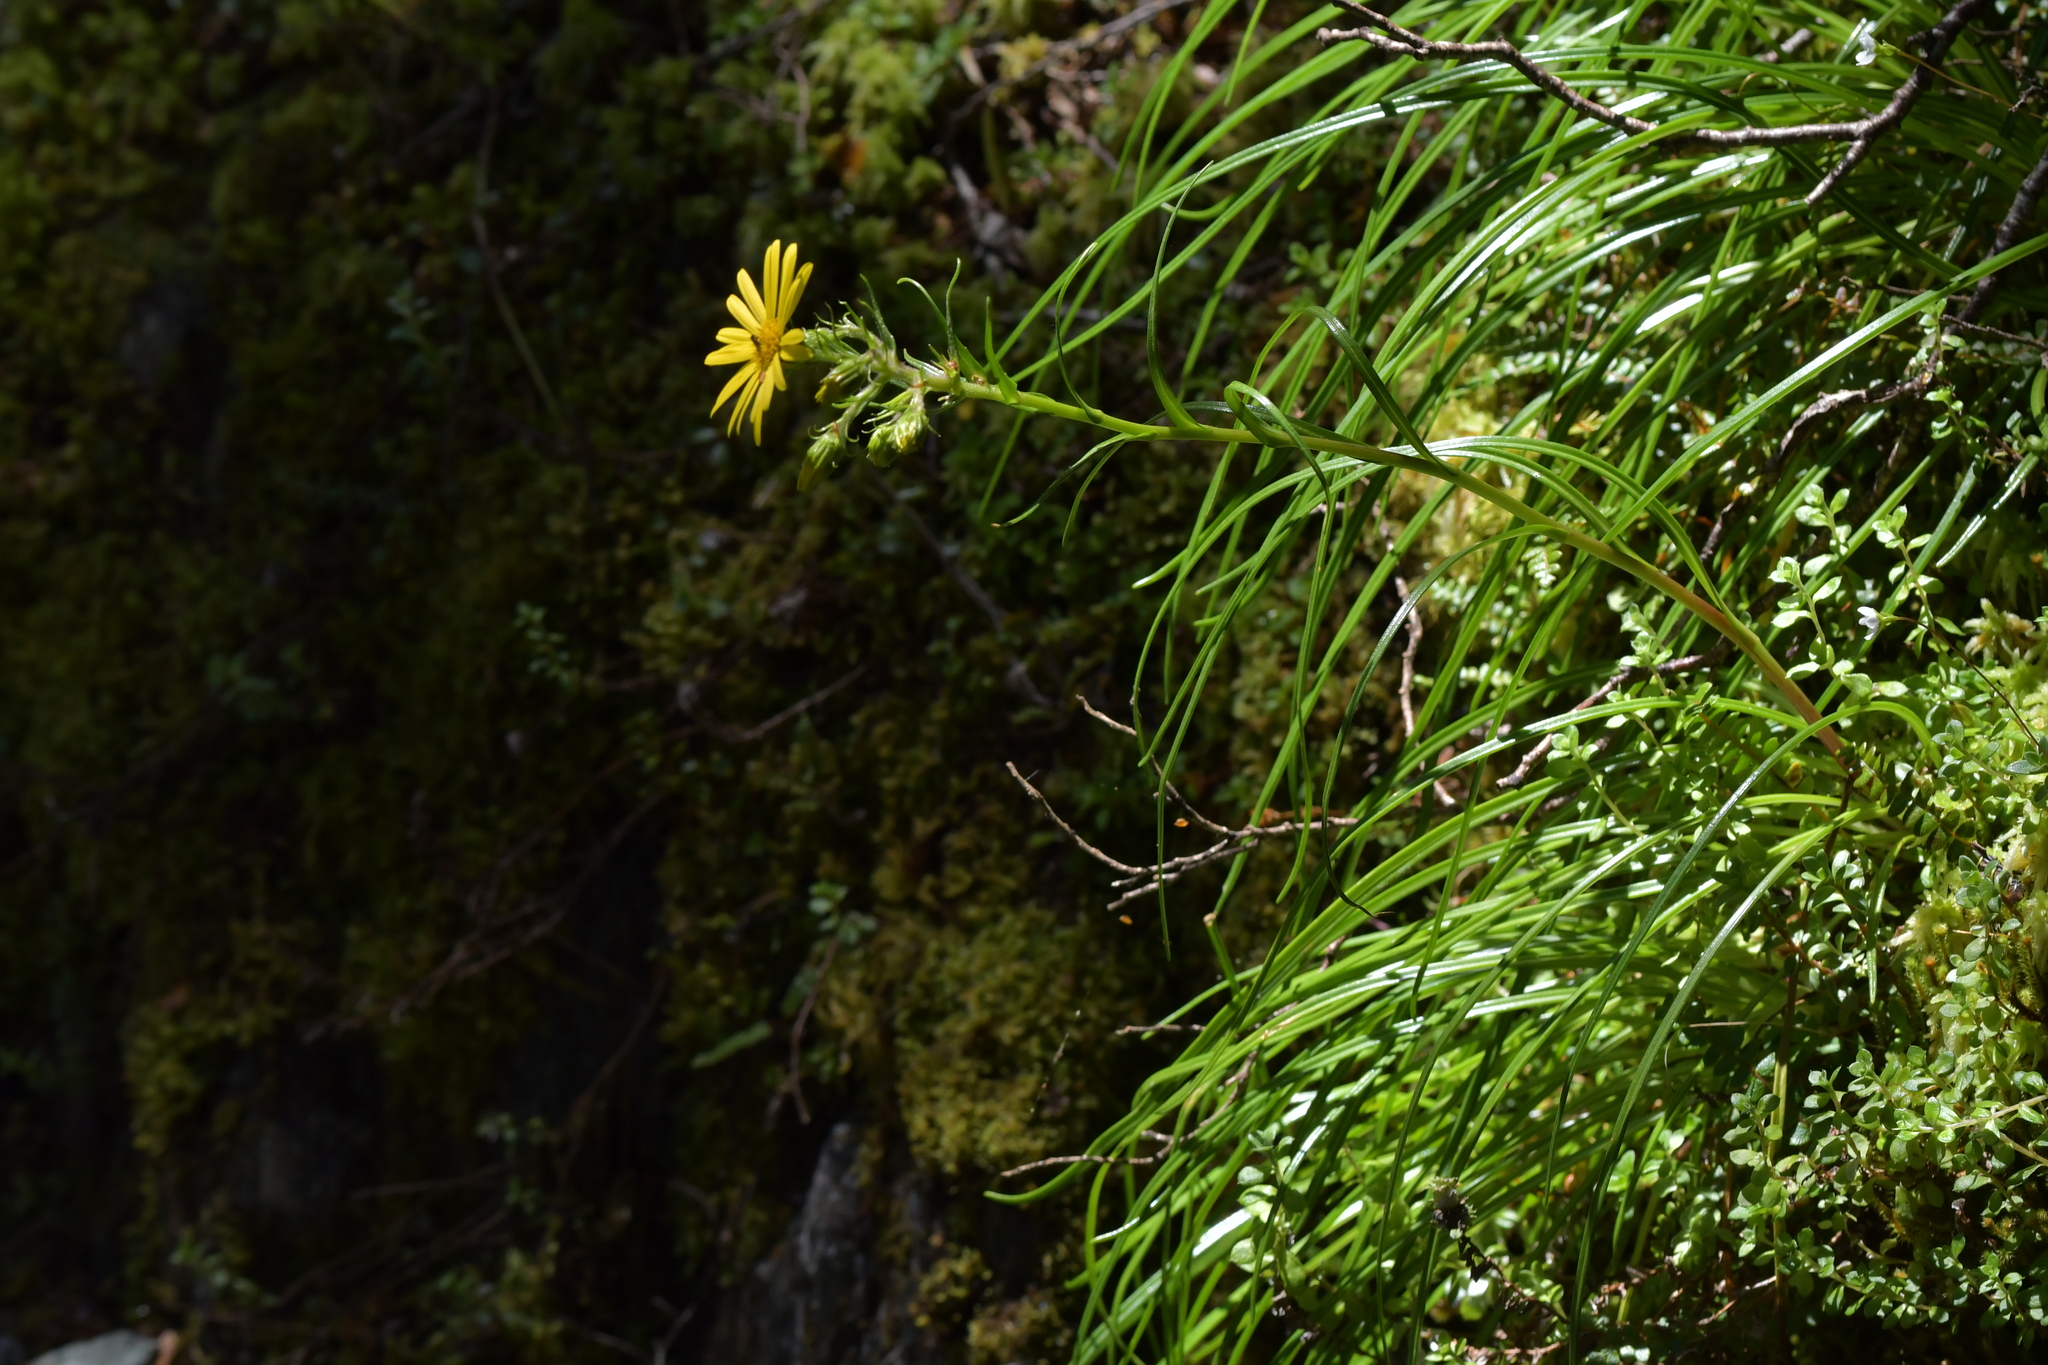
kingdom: Plantae
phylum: Tracheophyta
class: Magnoliopsida
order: Asterales
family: Asteraceae
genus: Dolichoglottis
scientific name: Dolichoglottis lyallii
